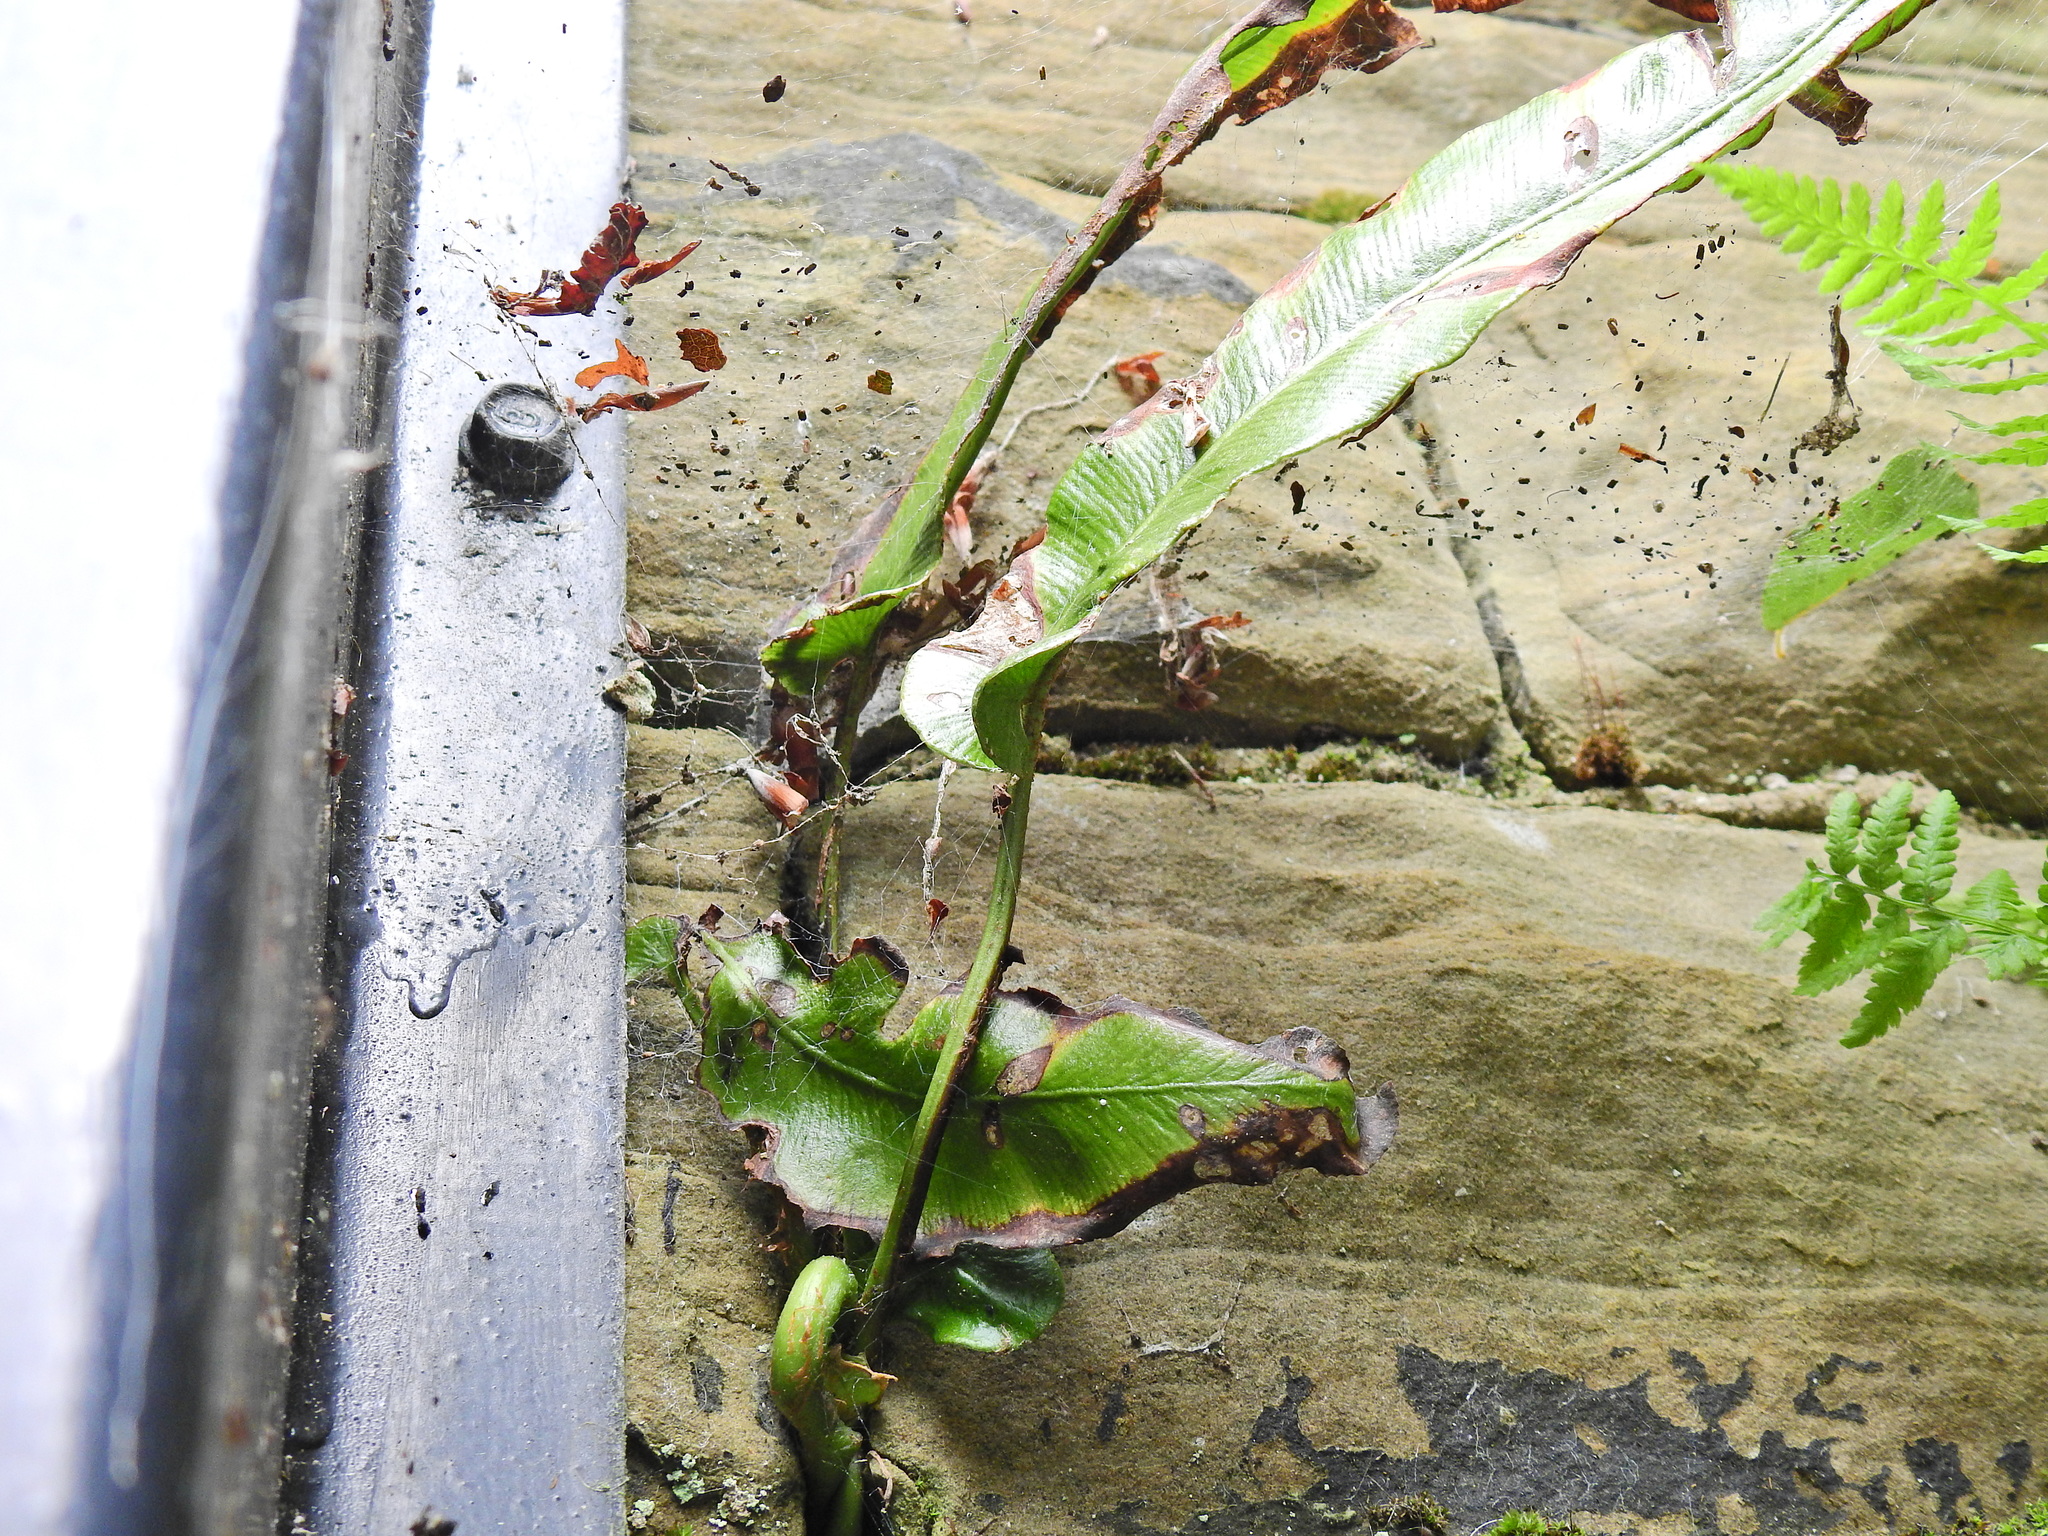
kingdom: Plantae
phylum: Tracheophyta
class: Polypodiopsida
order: Polypodiales
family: Aspleniaceae
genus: Asplenium
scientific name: Asplenium scolopendrium
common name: Hart's-tongue fern
